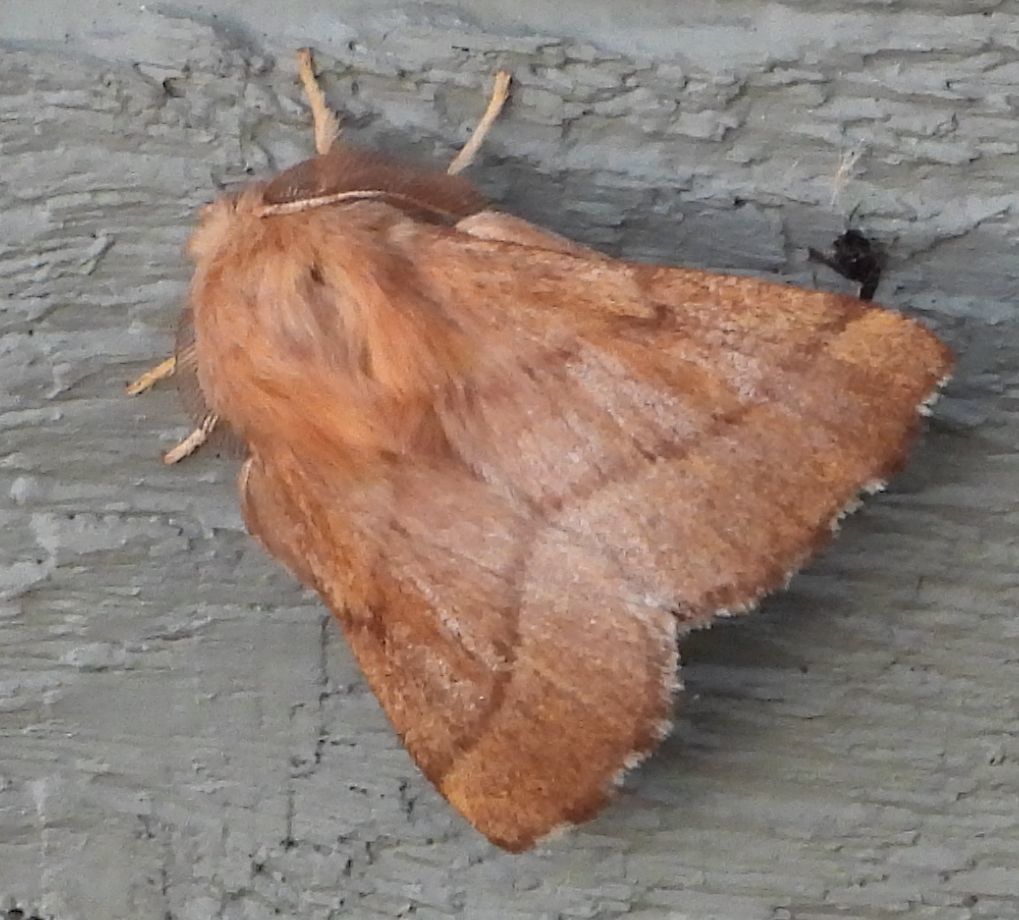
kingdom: Animalia
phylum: Arthropoda
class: Insecta
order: Lepidoptera
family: Lasiocampidae
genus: Malacosoma
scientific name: Malacosoma disstria
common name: Forest tent caterpillar
